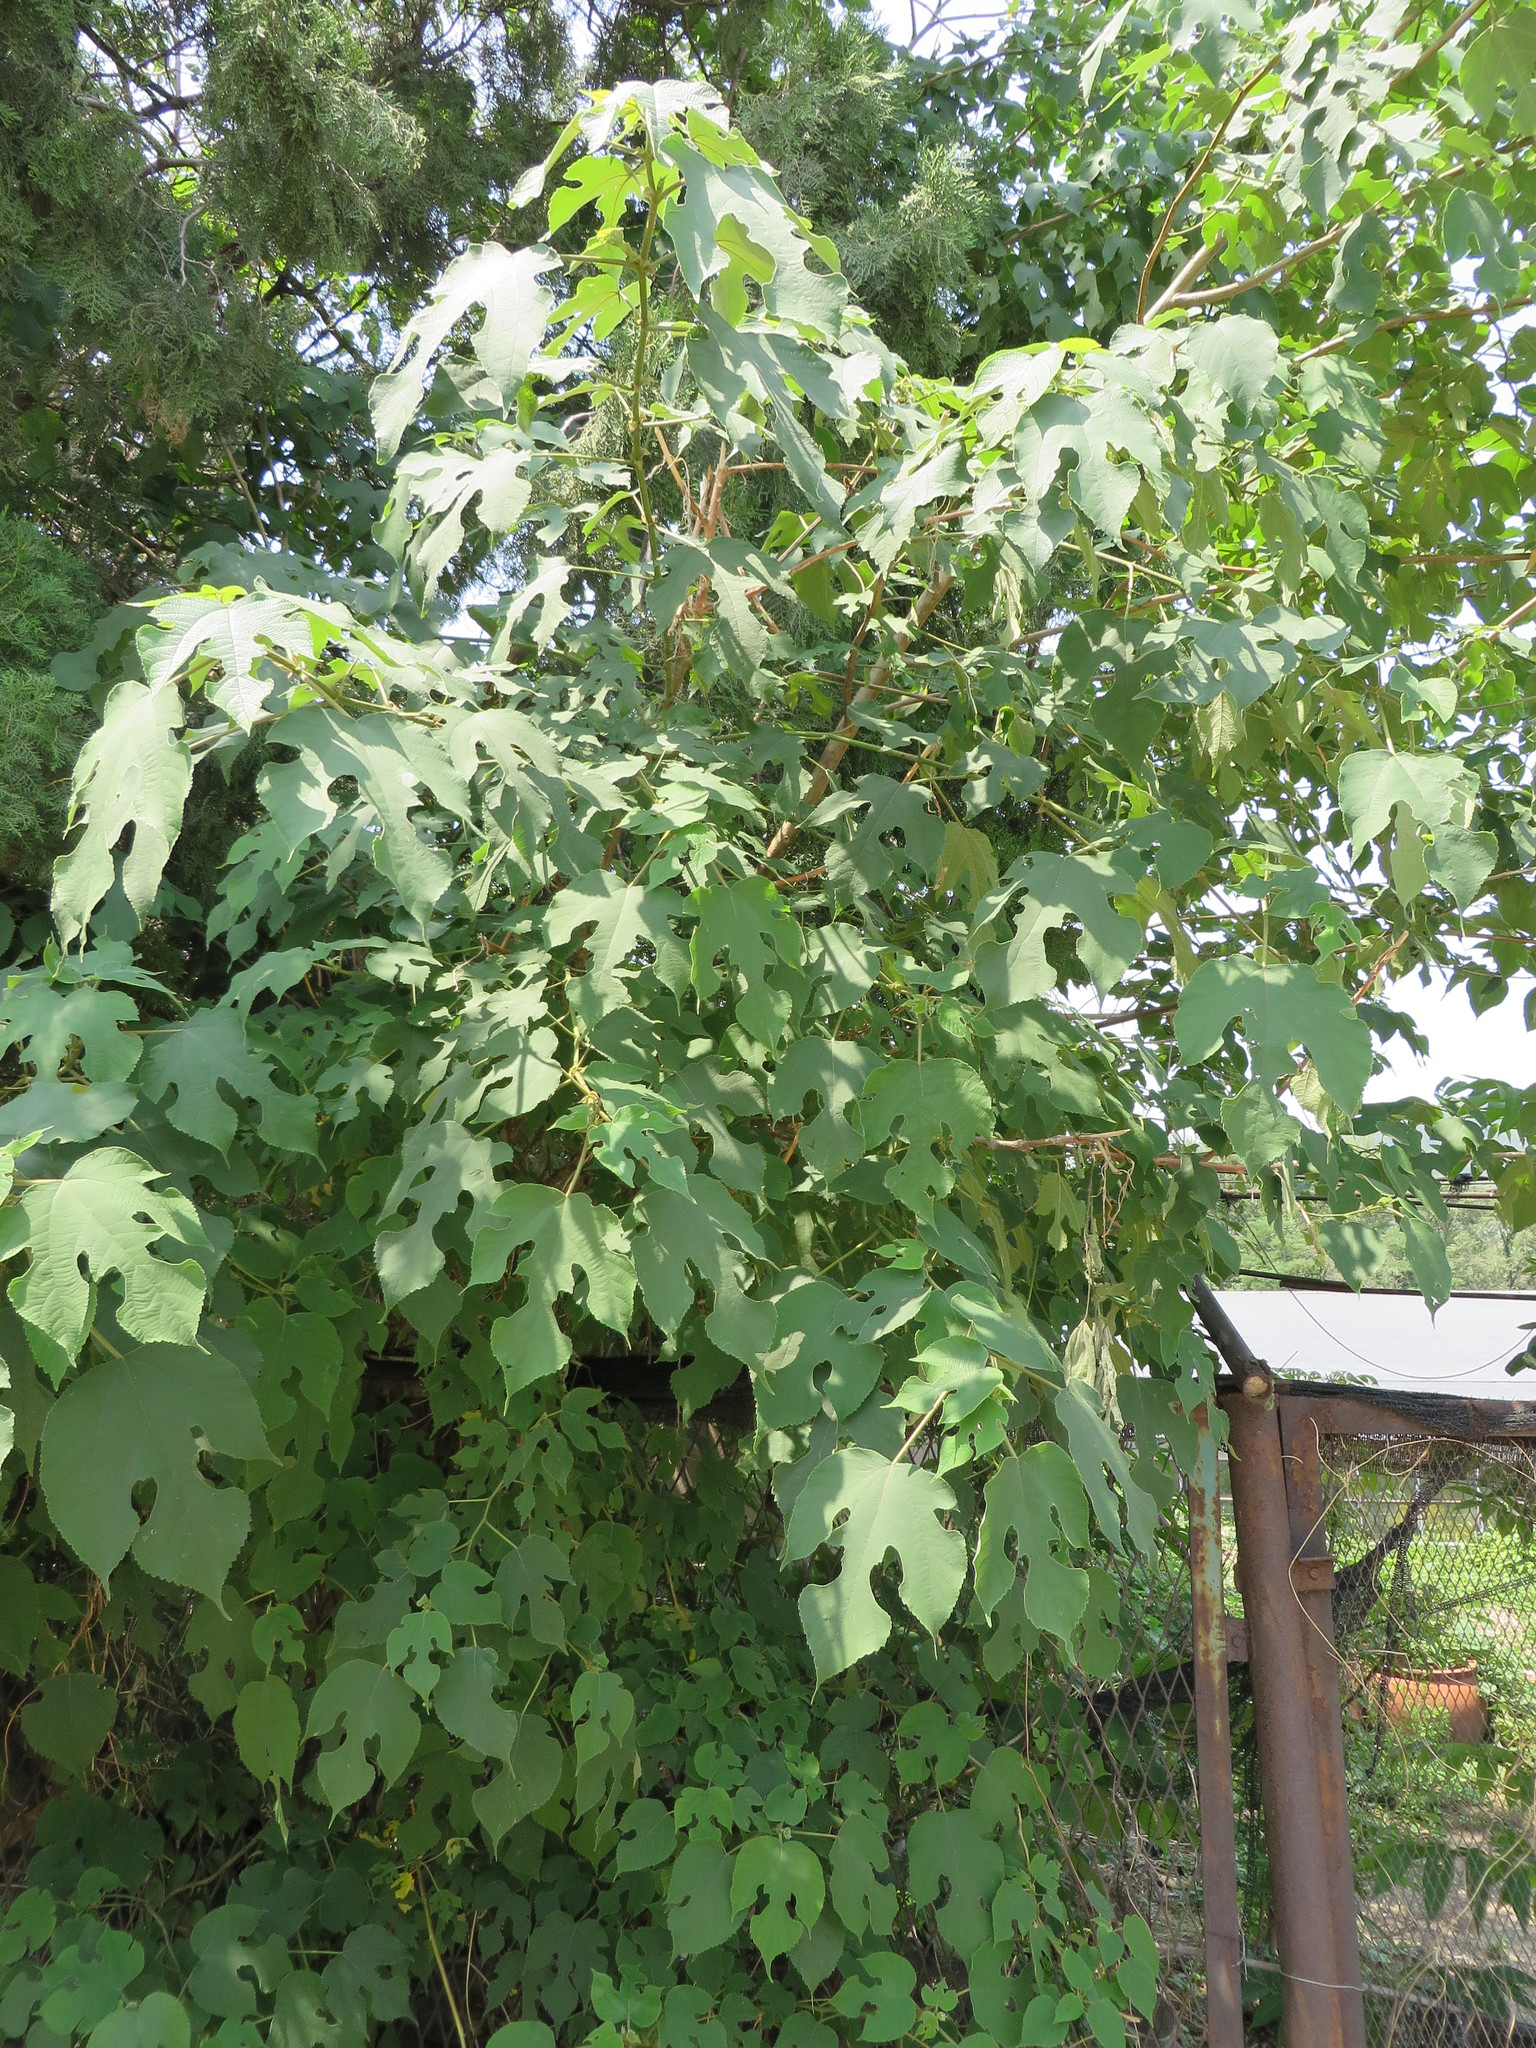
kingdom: Plantae
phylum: Tracheophyta
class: Magnoliopsida
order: Rosales
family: Moraceae
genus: Broussonetia
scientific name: Broussonetia papyrifera
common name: Paper mulberry
